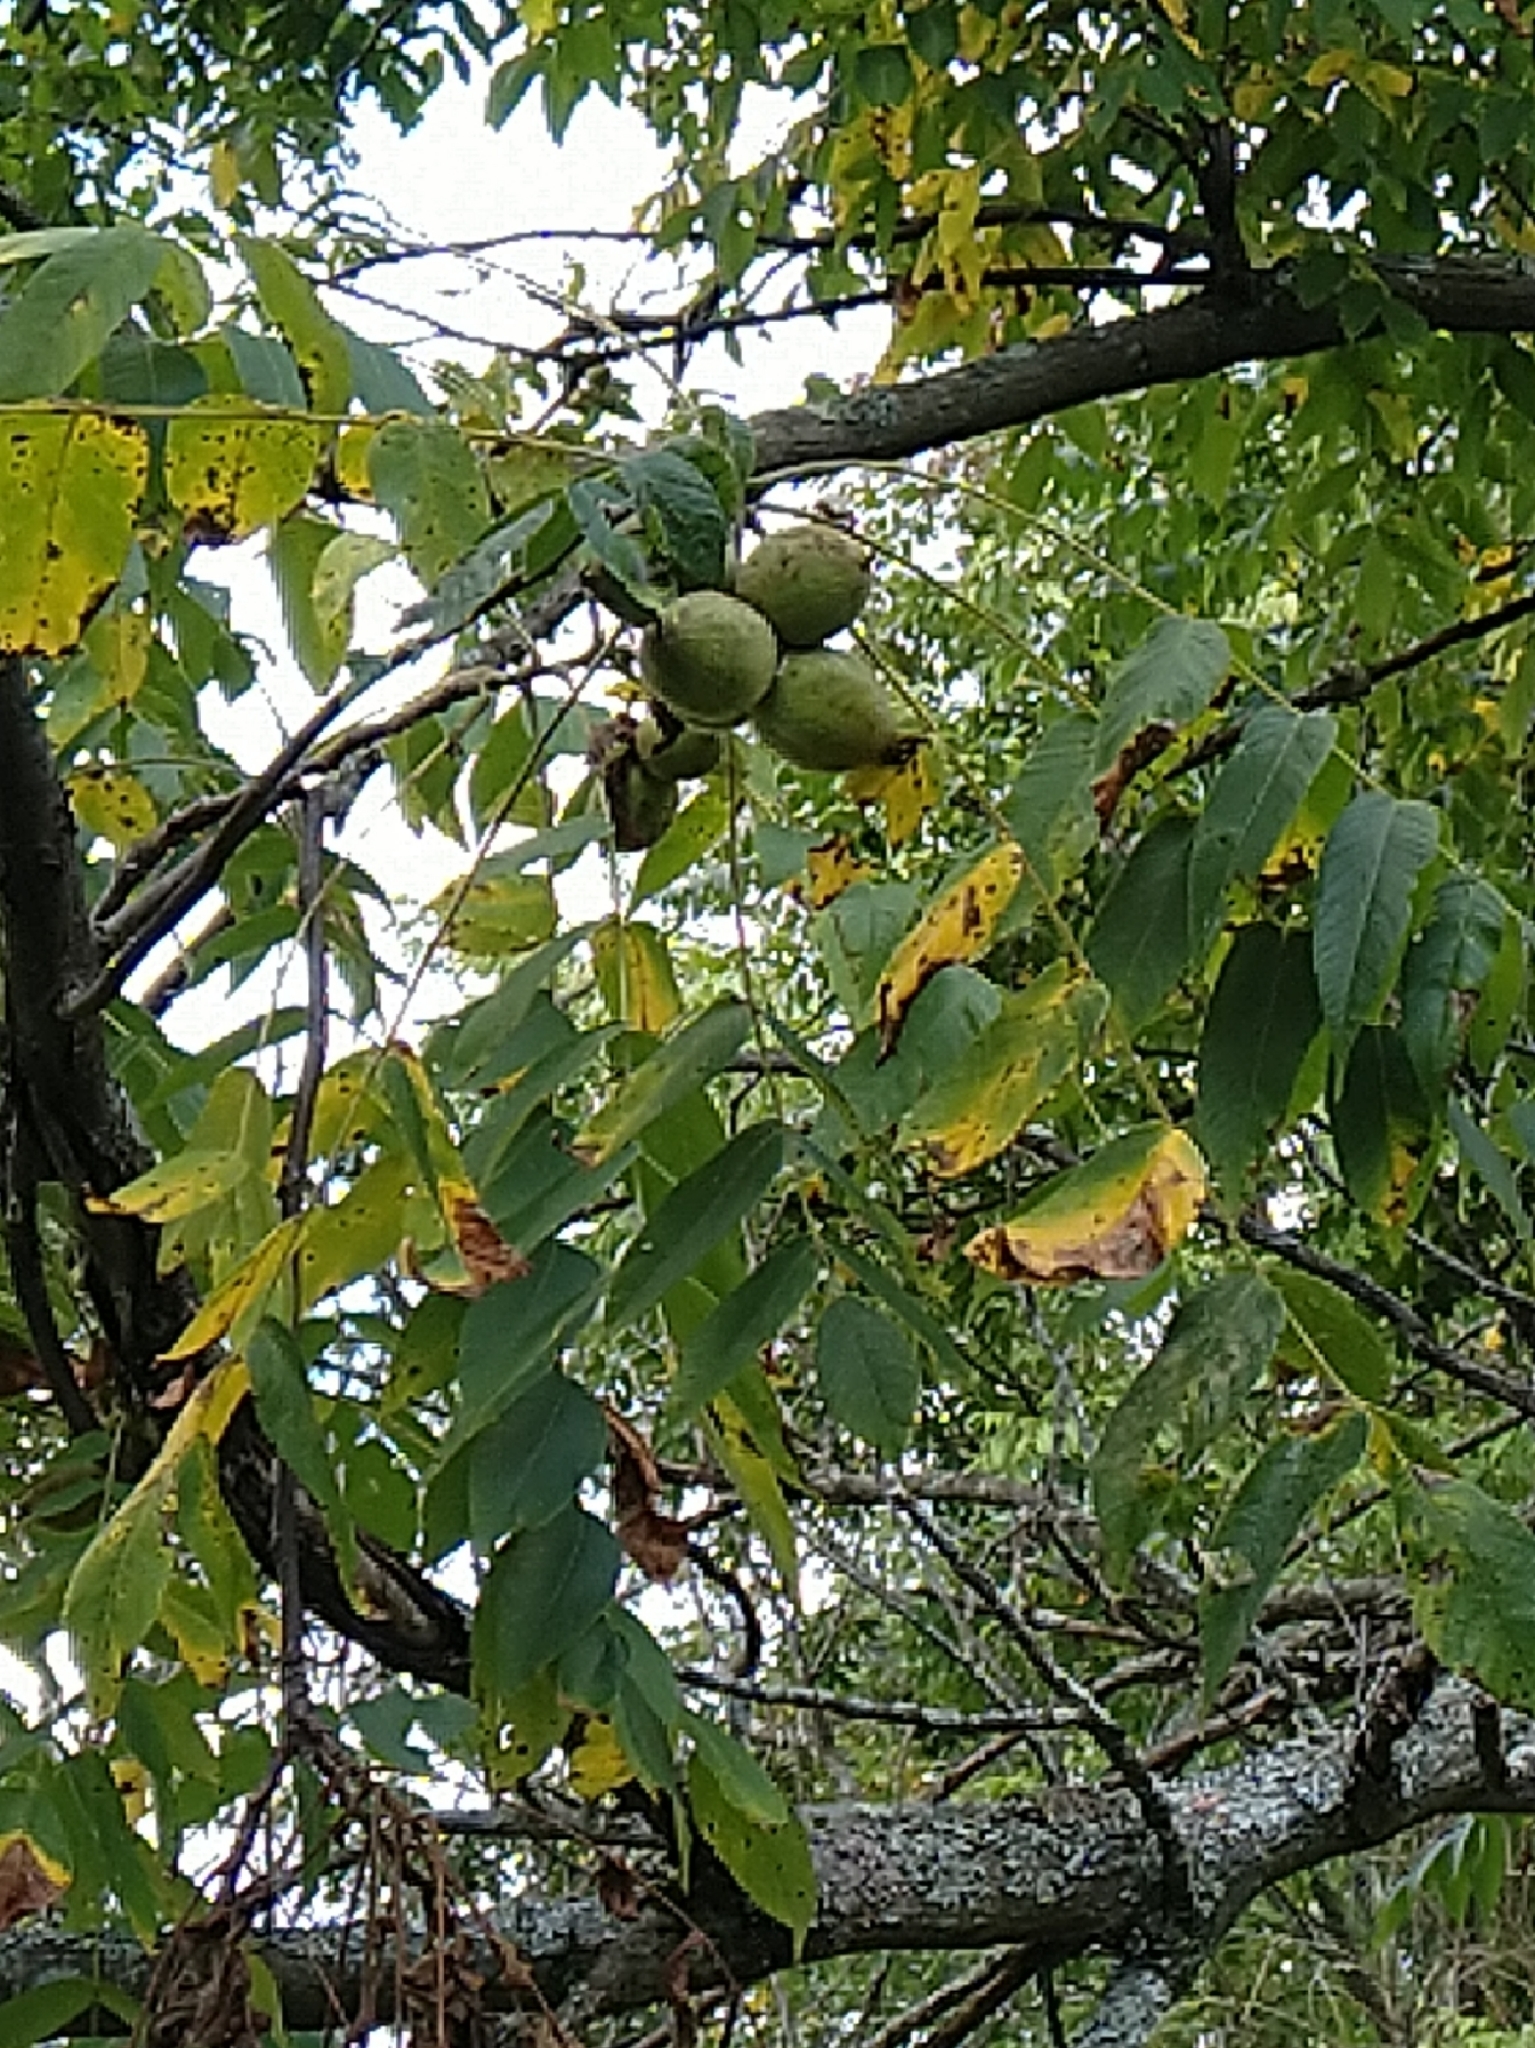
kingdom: Plantae
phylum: Tracheophyta
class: Magnoliopsida
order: Fagales
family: Juglandaceae
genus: Juglans
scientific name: Juglans nigra
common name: Black walnut
